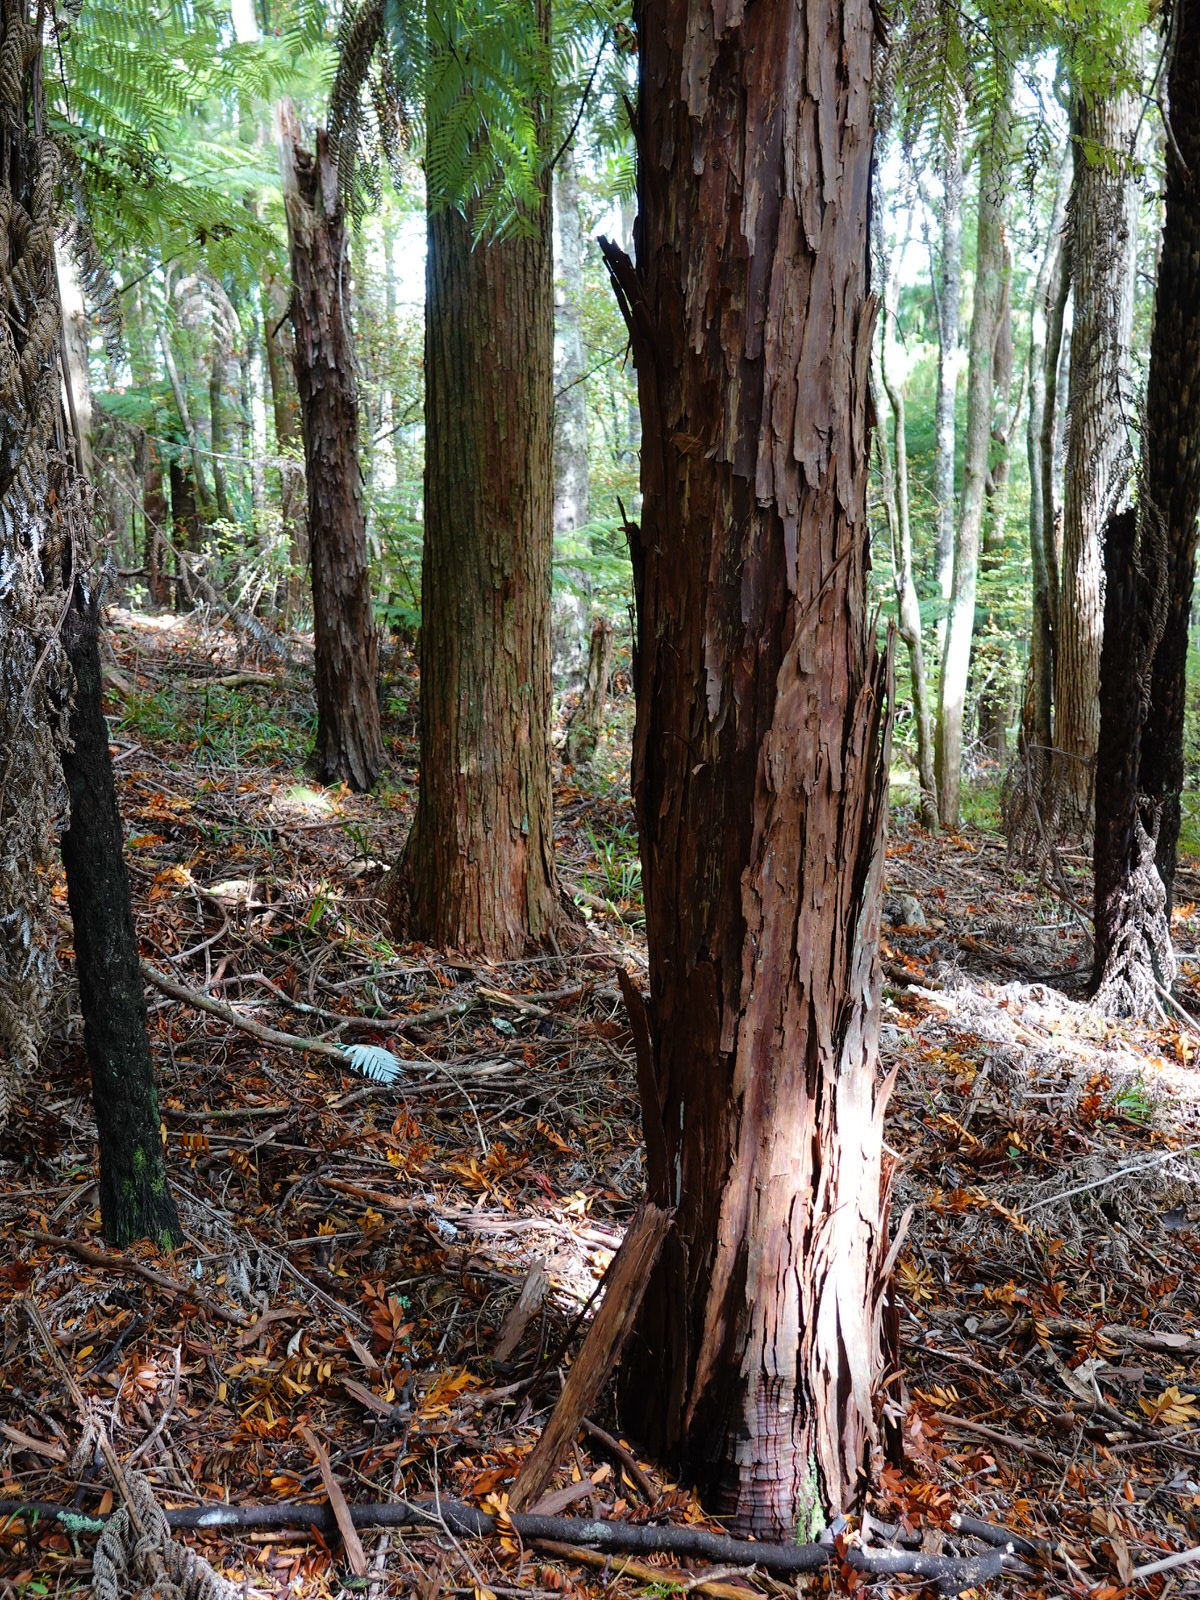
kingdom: Plantae
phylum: Tracheophyta
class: Pinopsida
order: Pinales
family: Cupressaceae
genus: Libocedrus
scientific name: Libocedrus plumosa
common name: New zealand cedar
